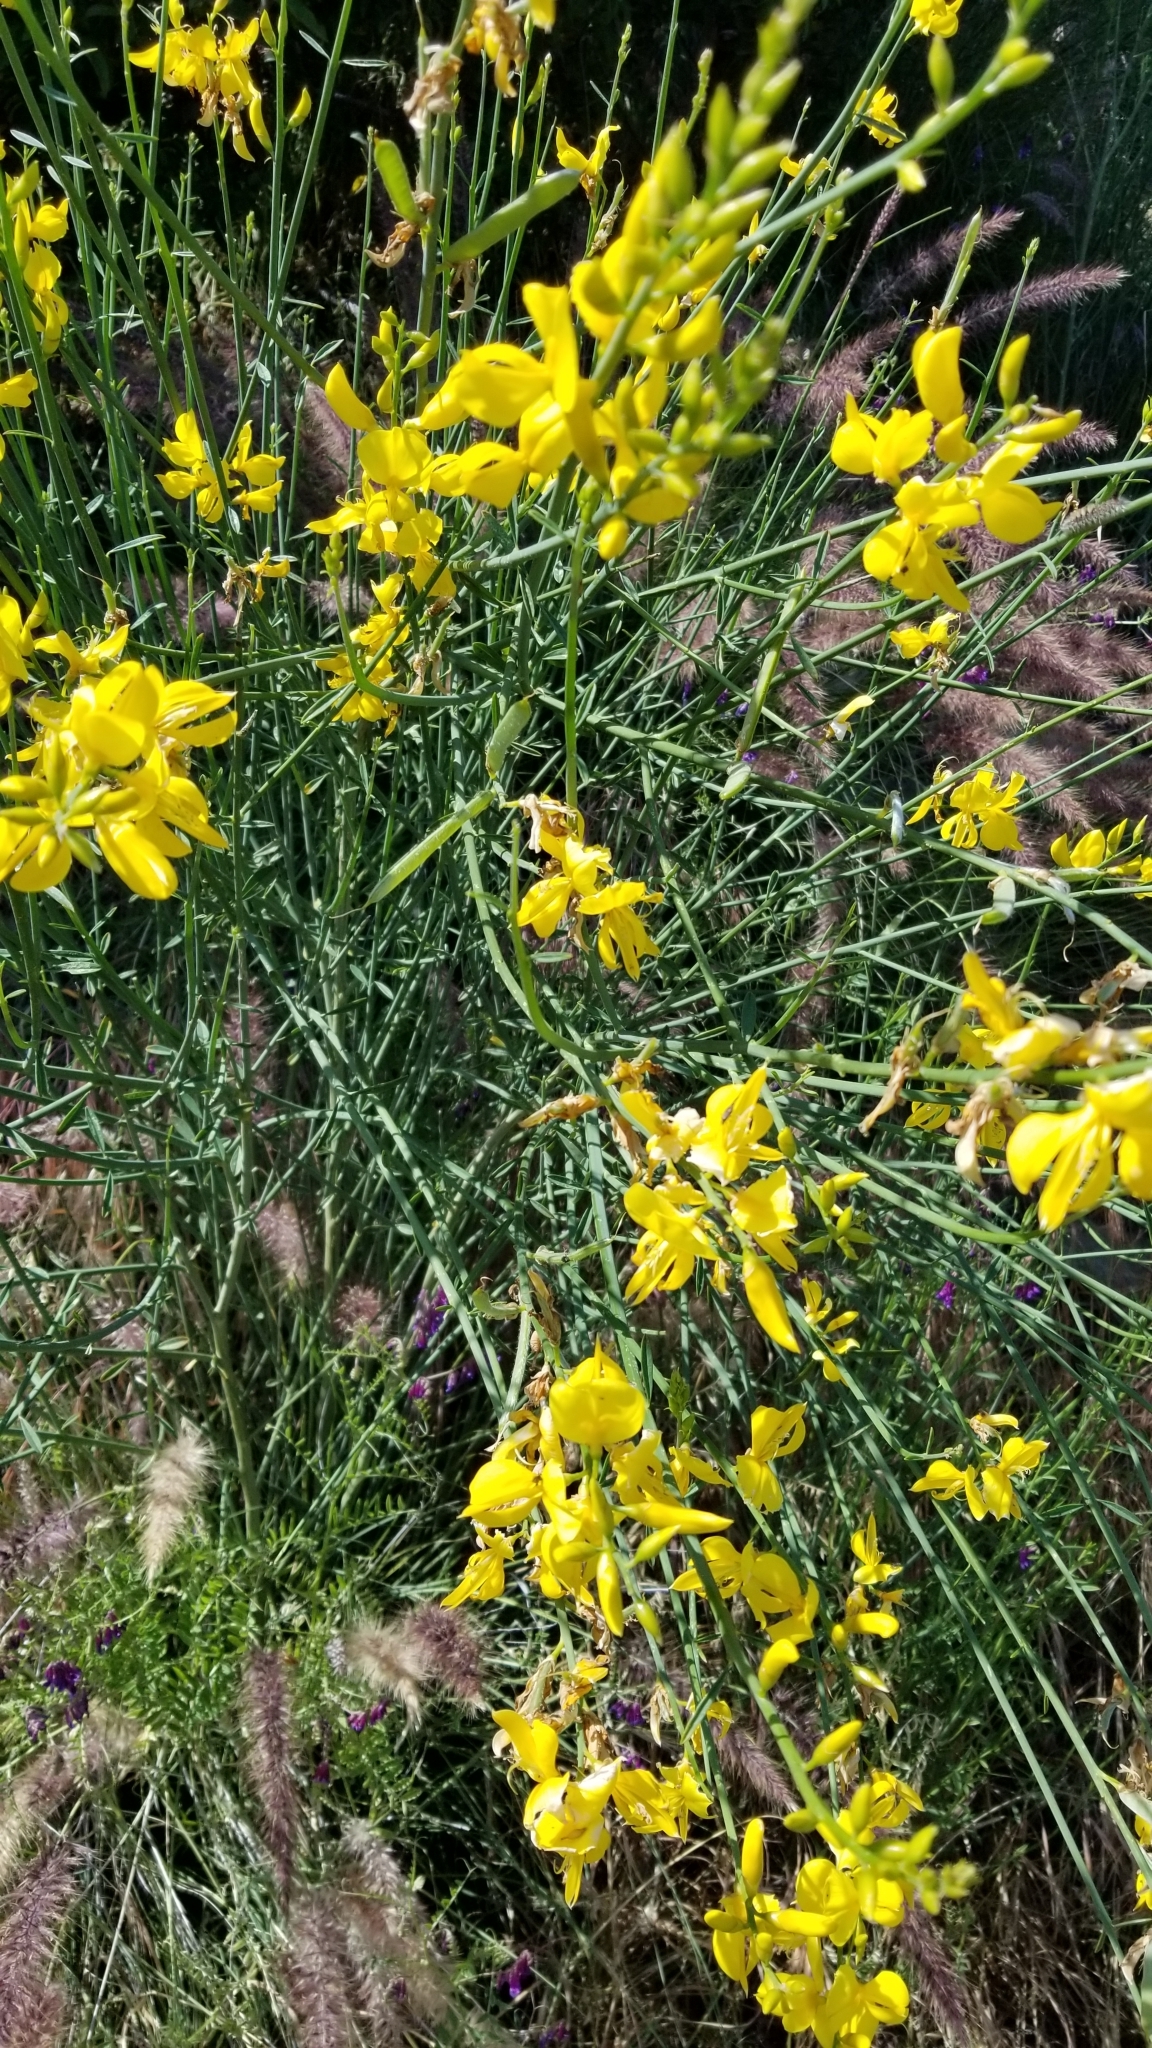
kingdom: Plantae
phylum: Tracheophyta
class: Magnoliopsida
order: Fabales
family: Fabaceae
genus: Spartium
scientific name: Spartium junceum
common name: Spanish broom
